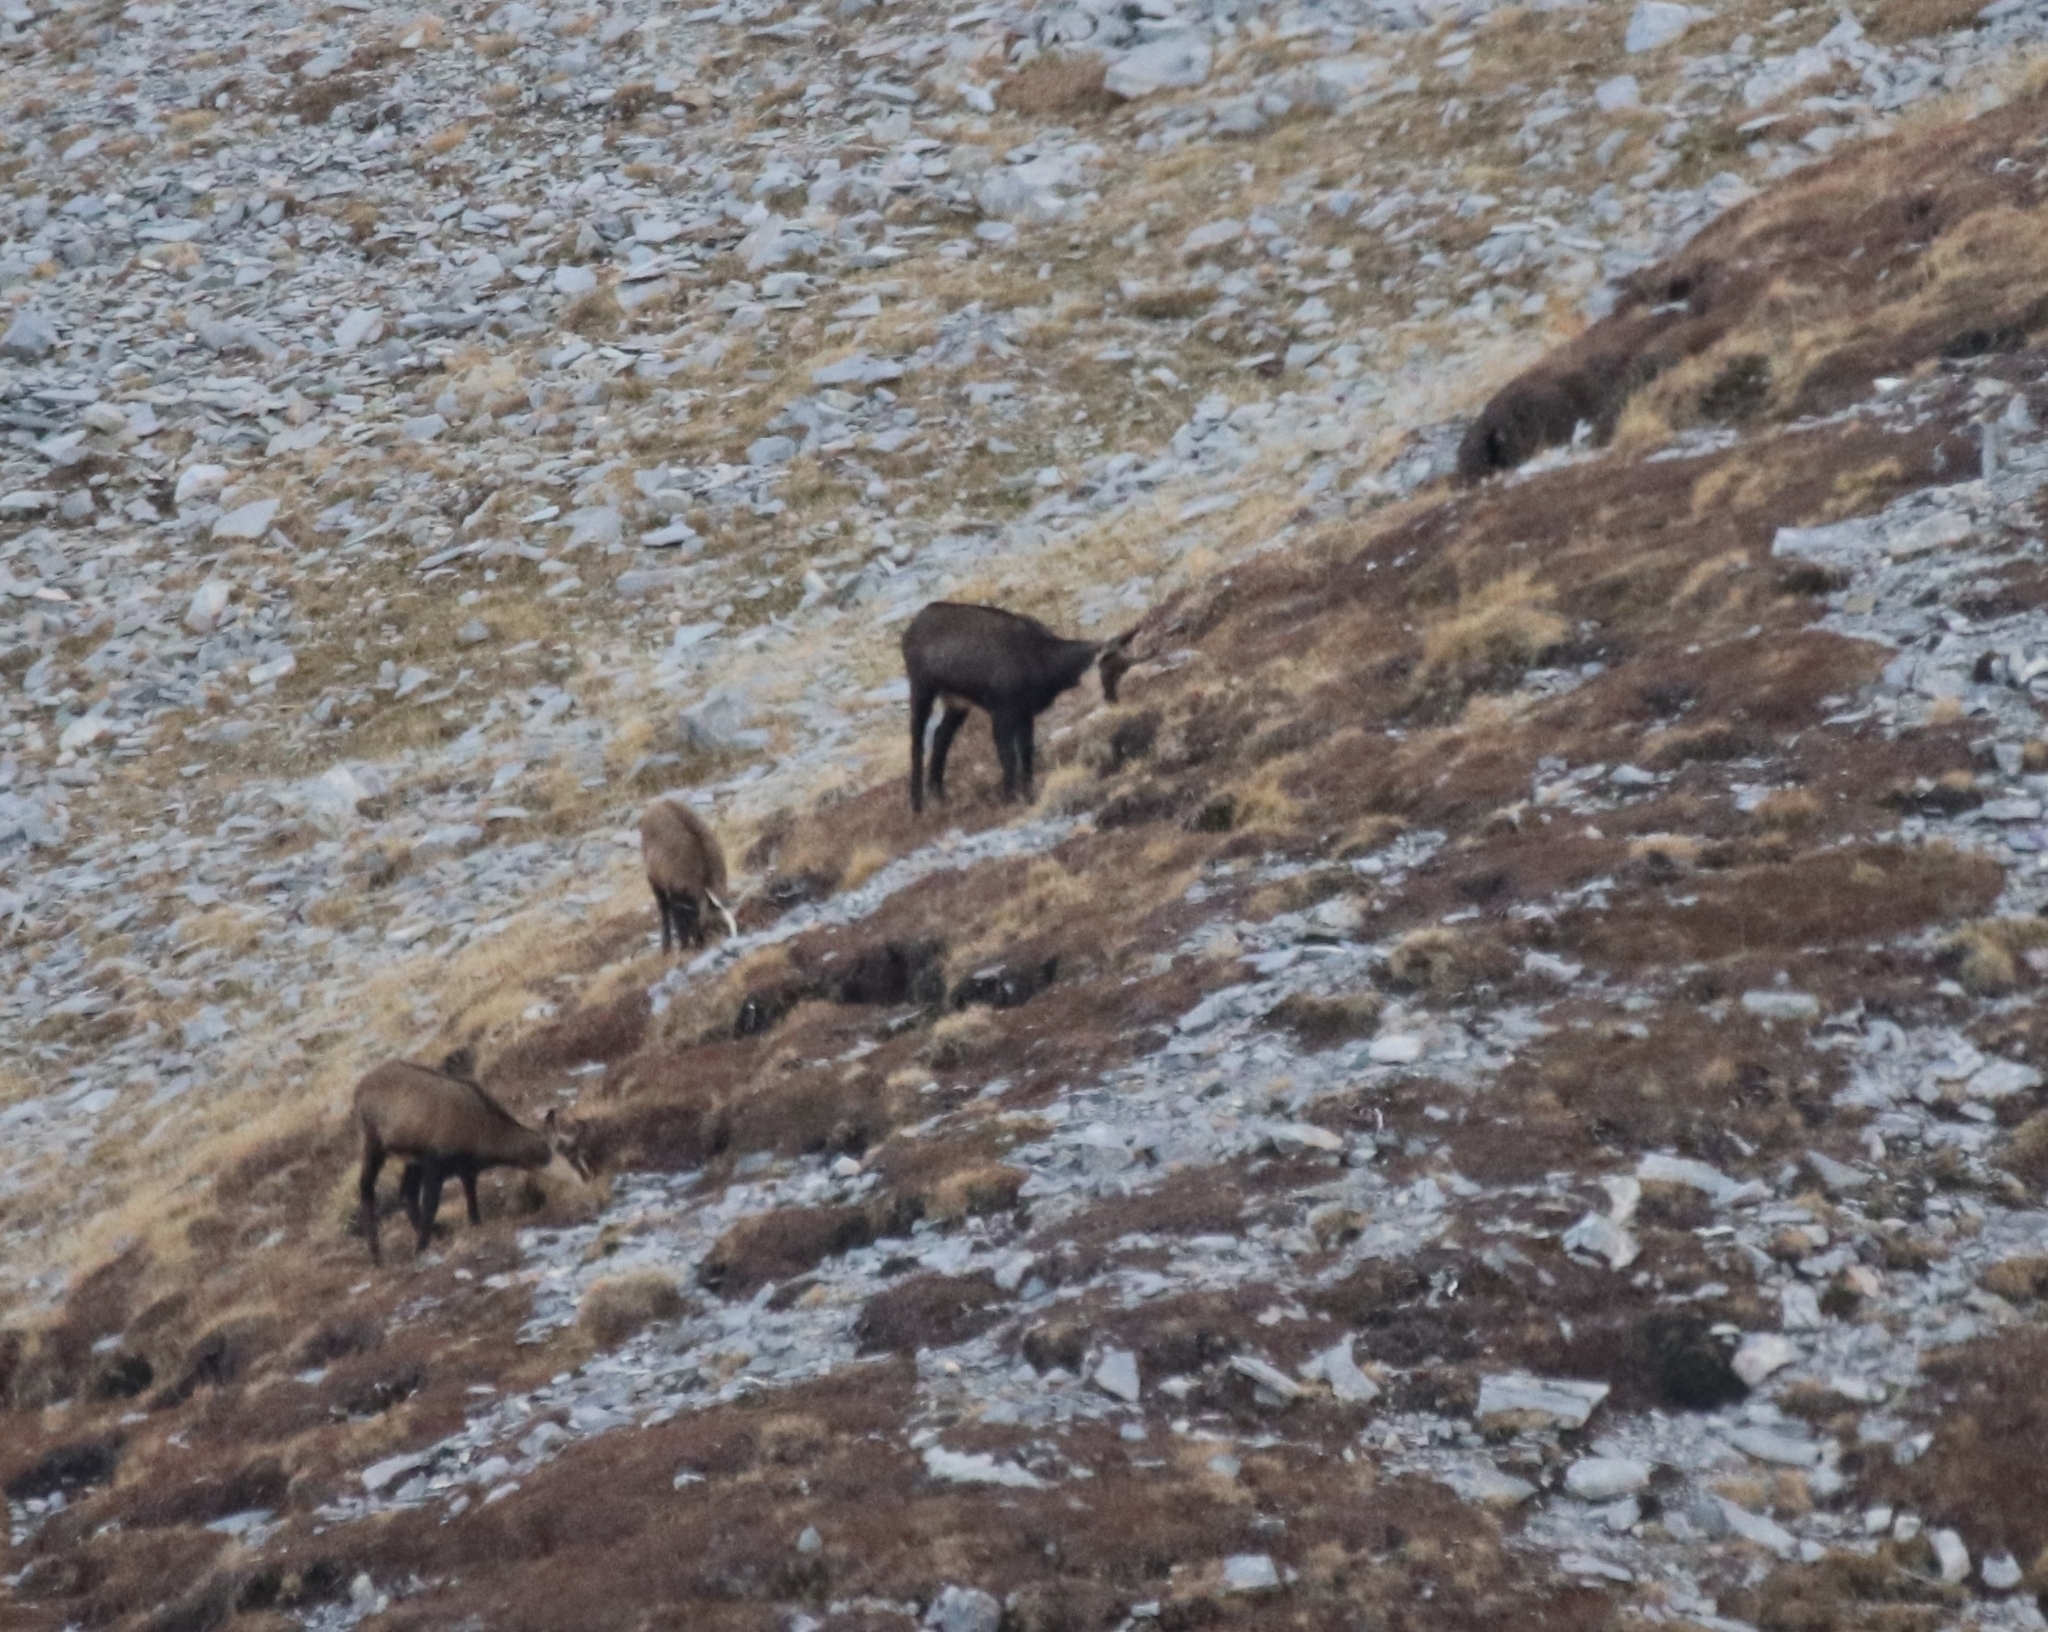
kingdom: Animalia
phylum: Chordata
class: Mammalia
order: Artiodactyla
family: Bovidae
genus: Rupicapra
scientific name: Rupicapra rupicapra
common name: Chamois
